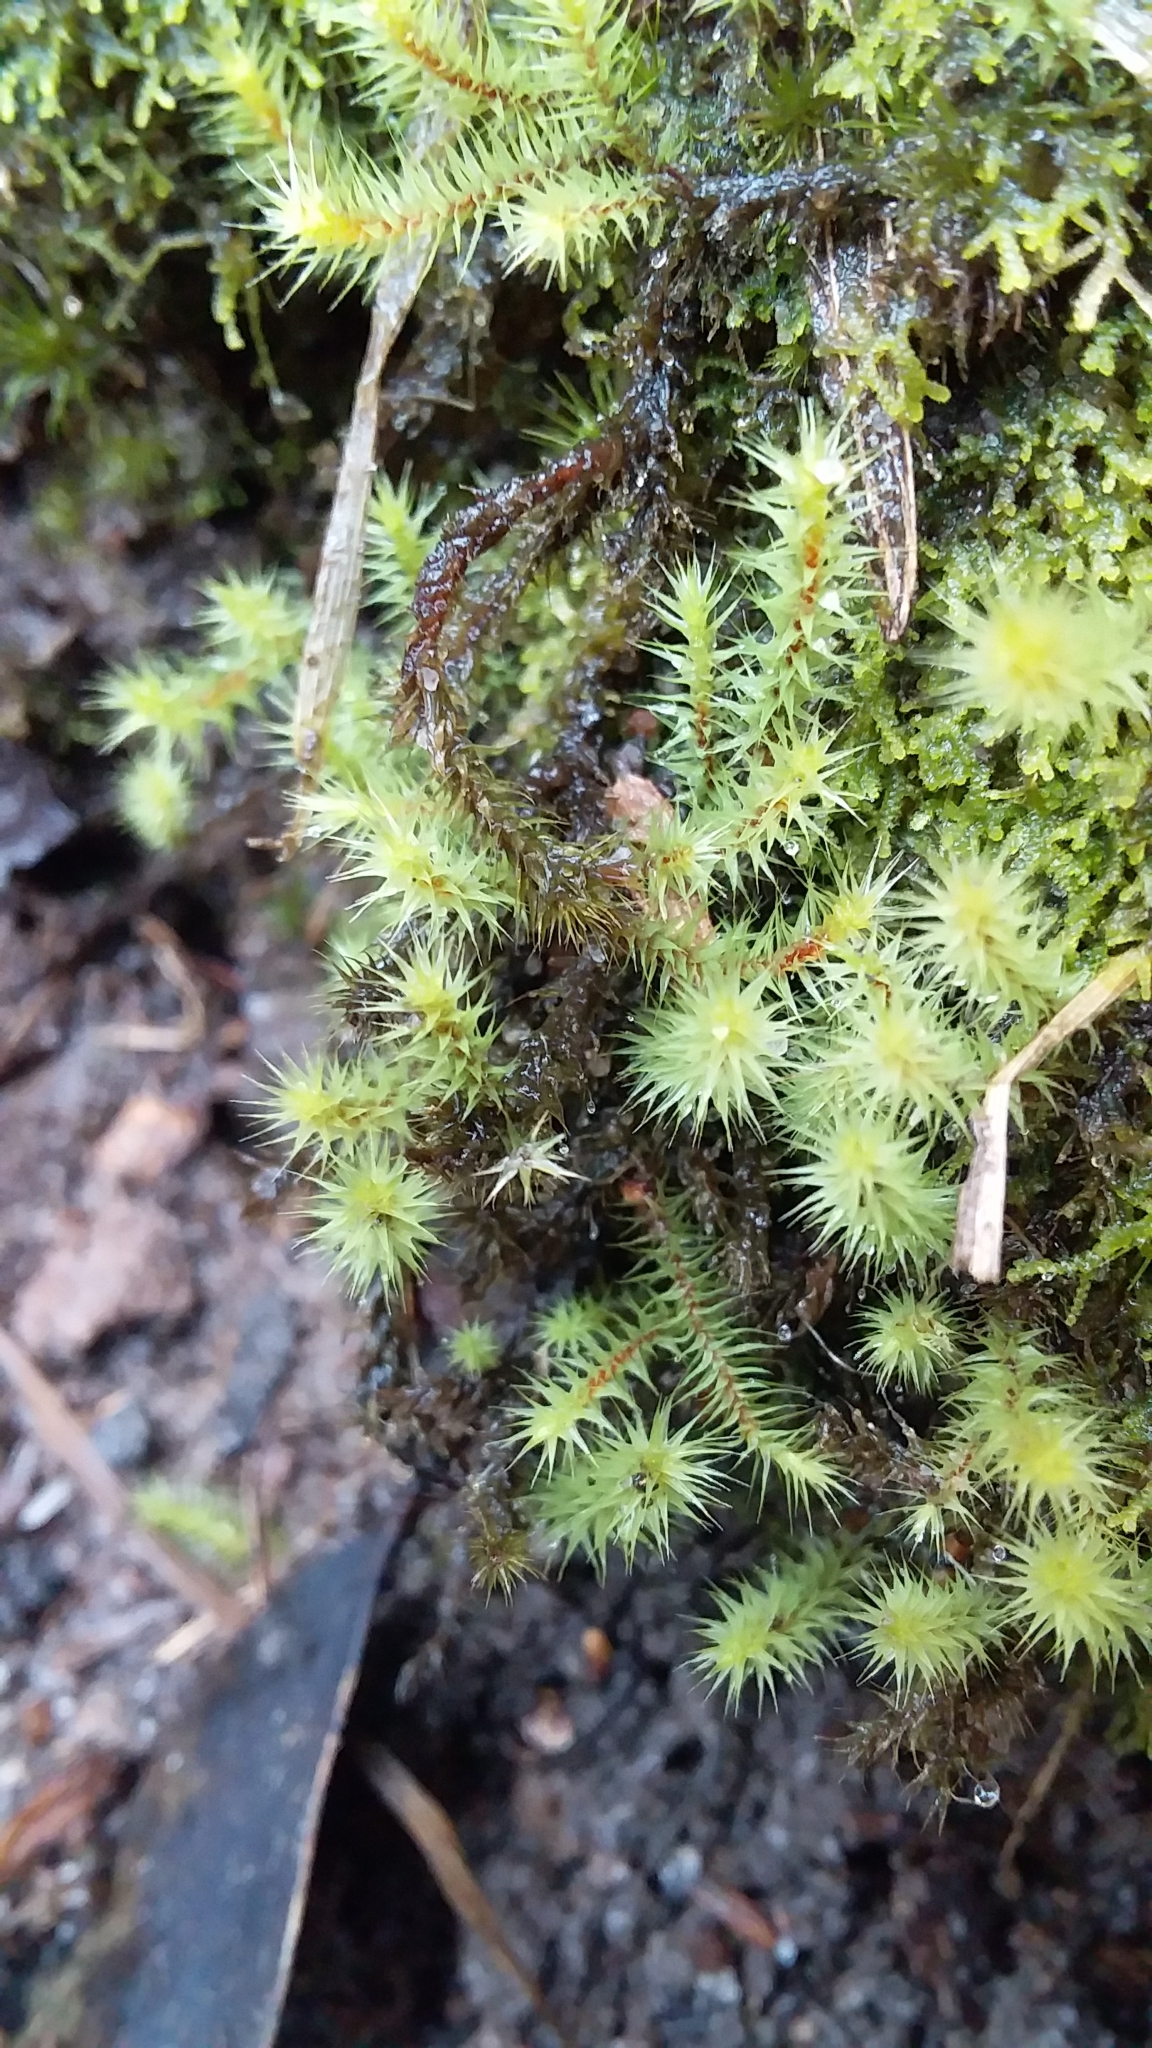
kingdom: Plantae
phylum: Bryophyta
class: Bryopsida
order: Bartramiales
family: Bartramiaceae
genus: Breutelia
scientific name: Breutelia affinis
